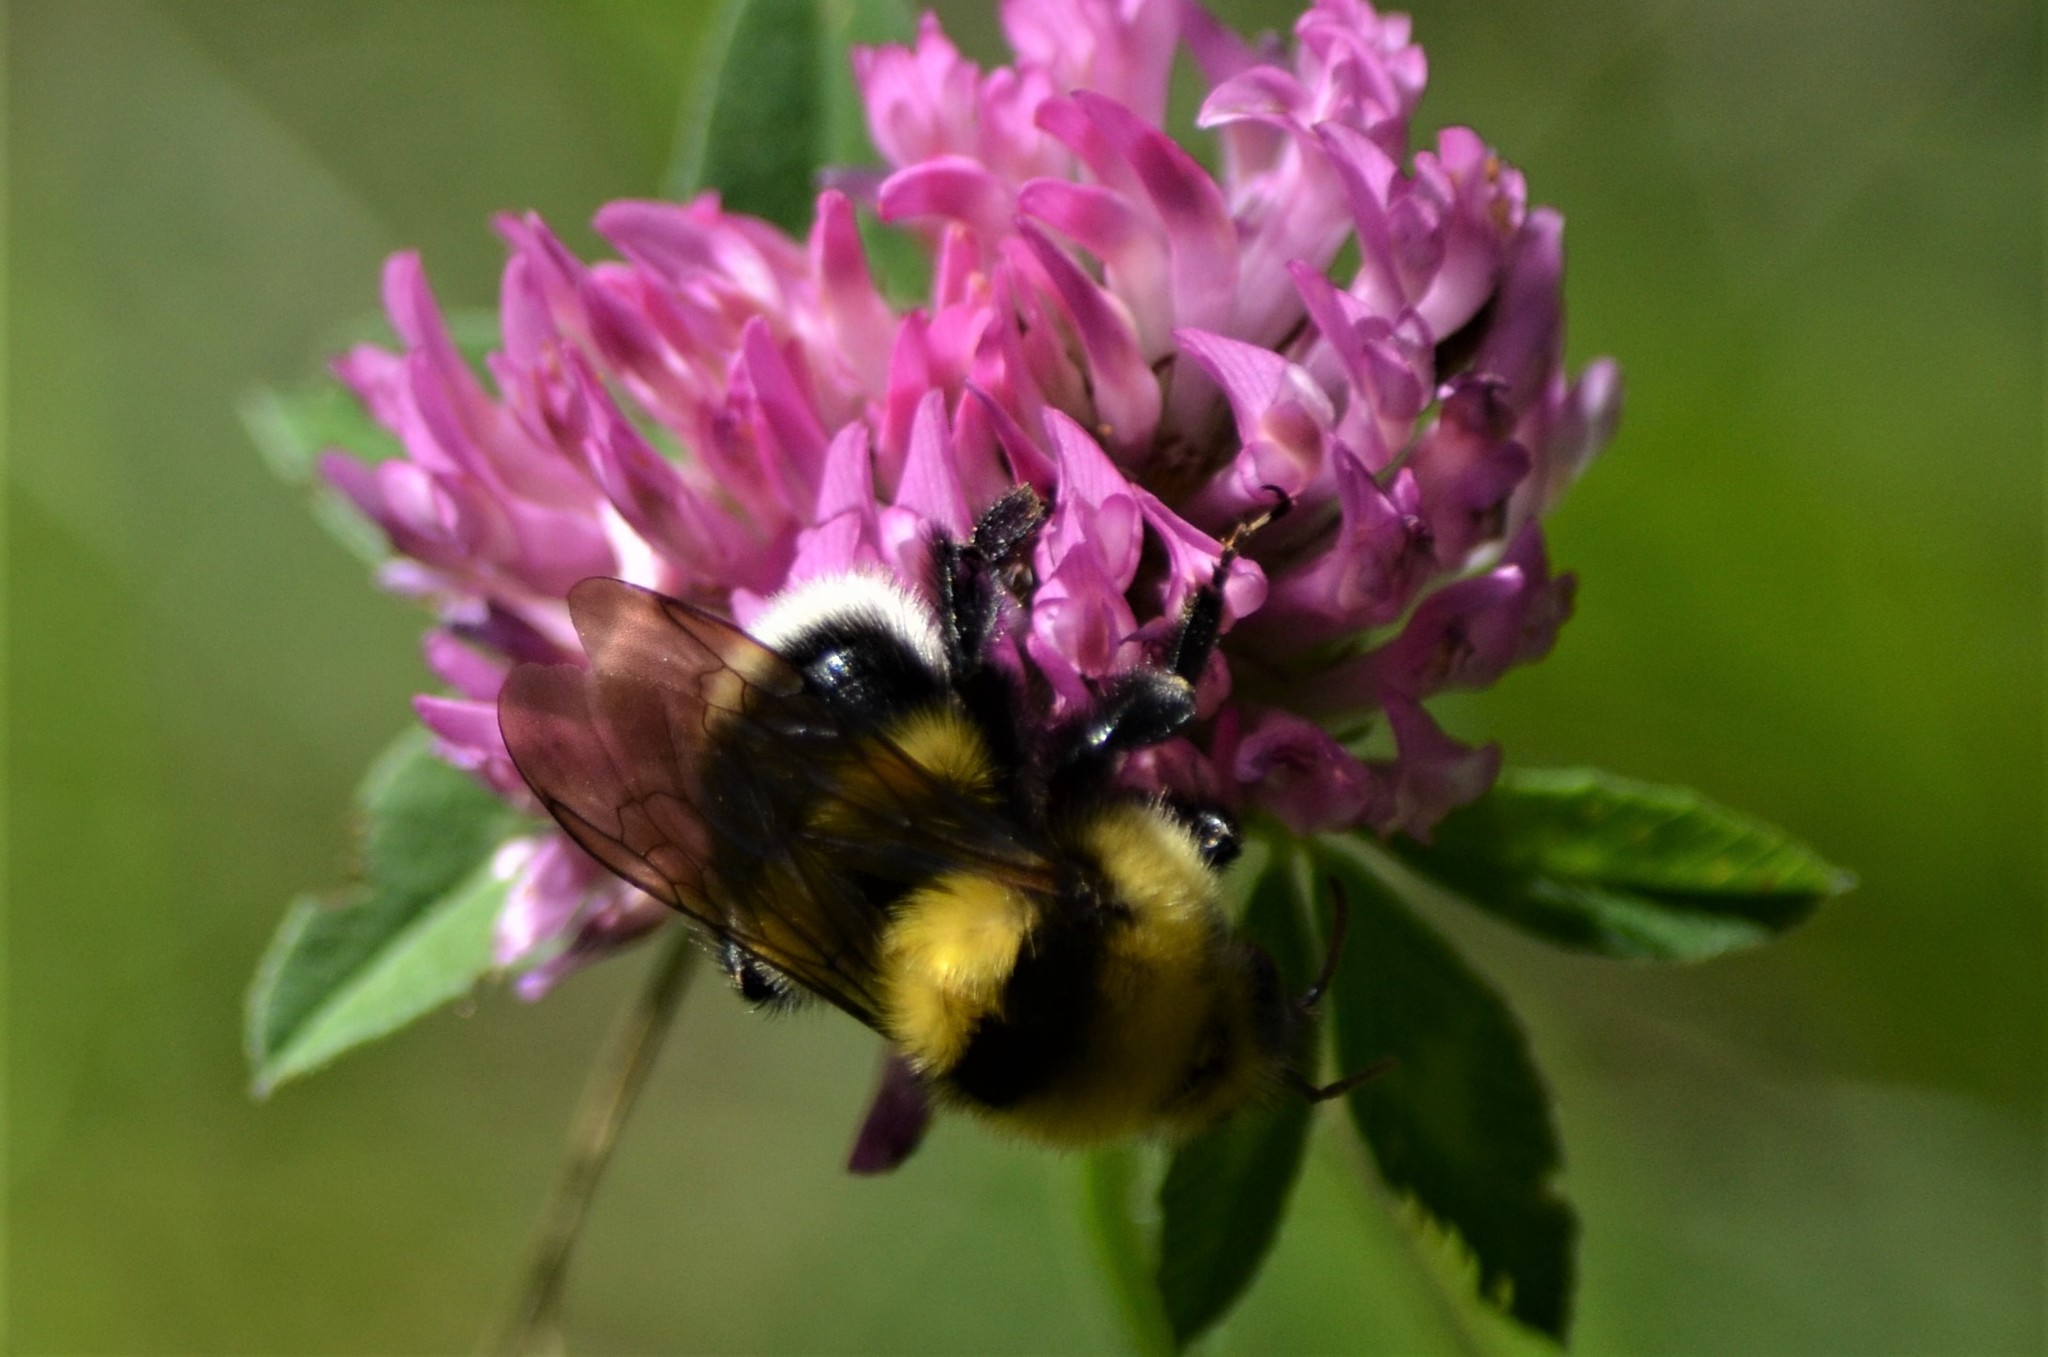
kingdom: Animalia
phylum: Arthropoda
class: Insecta
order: Hymenoptera
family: Apidae
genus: Bombus
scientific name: Bombus argillaceus
